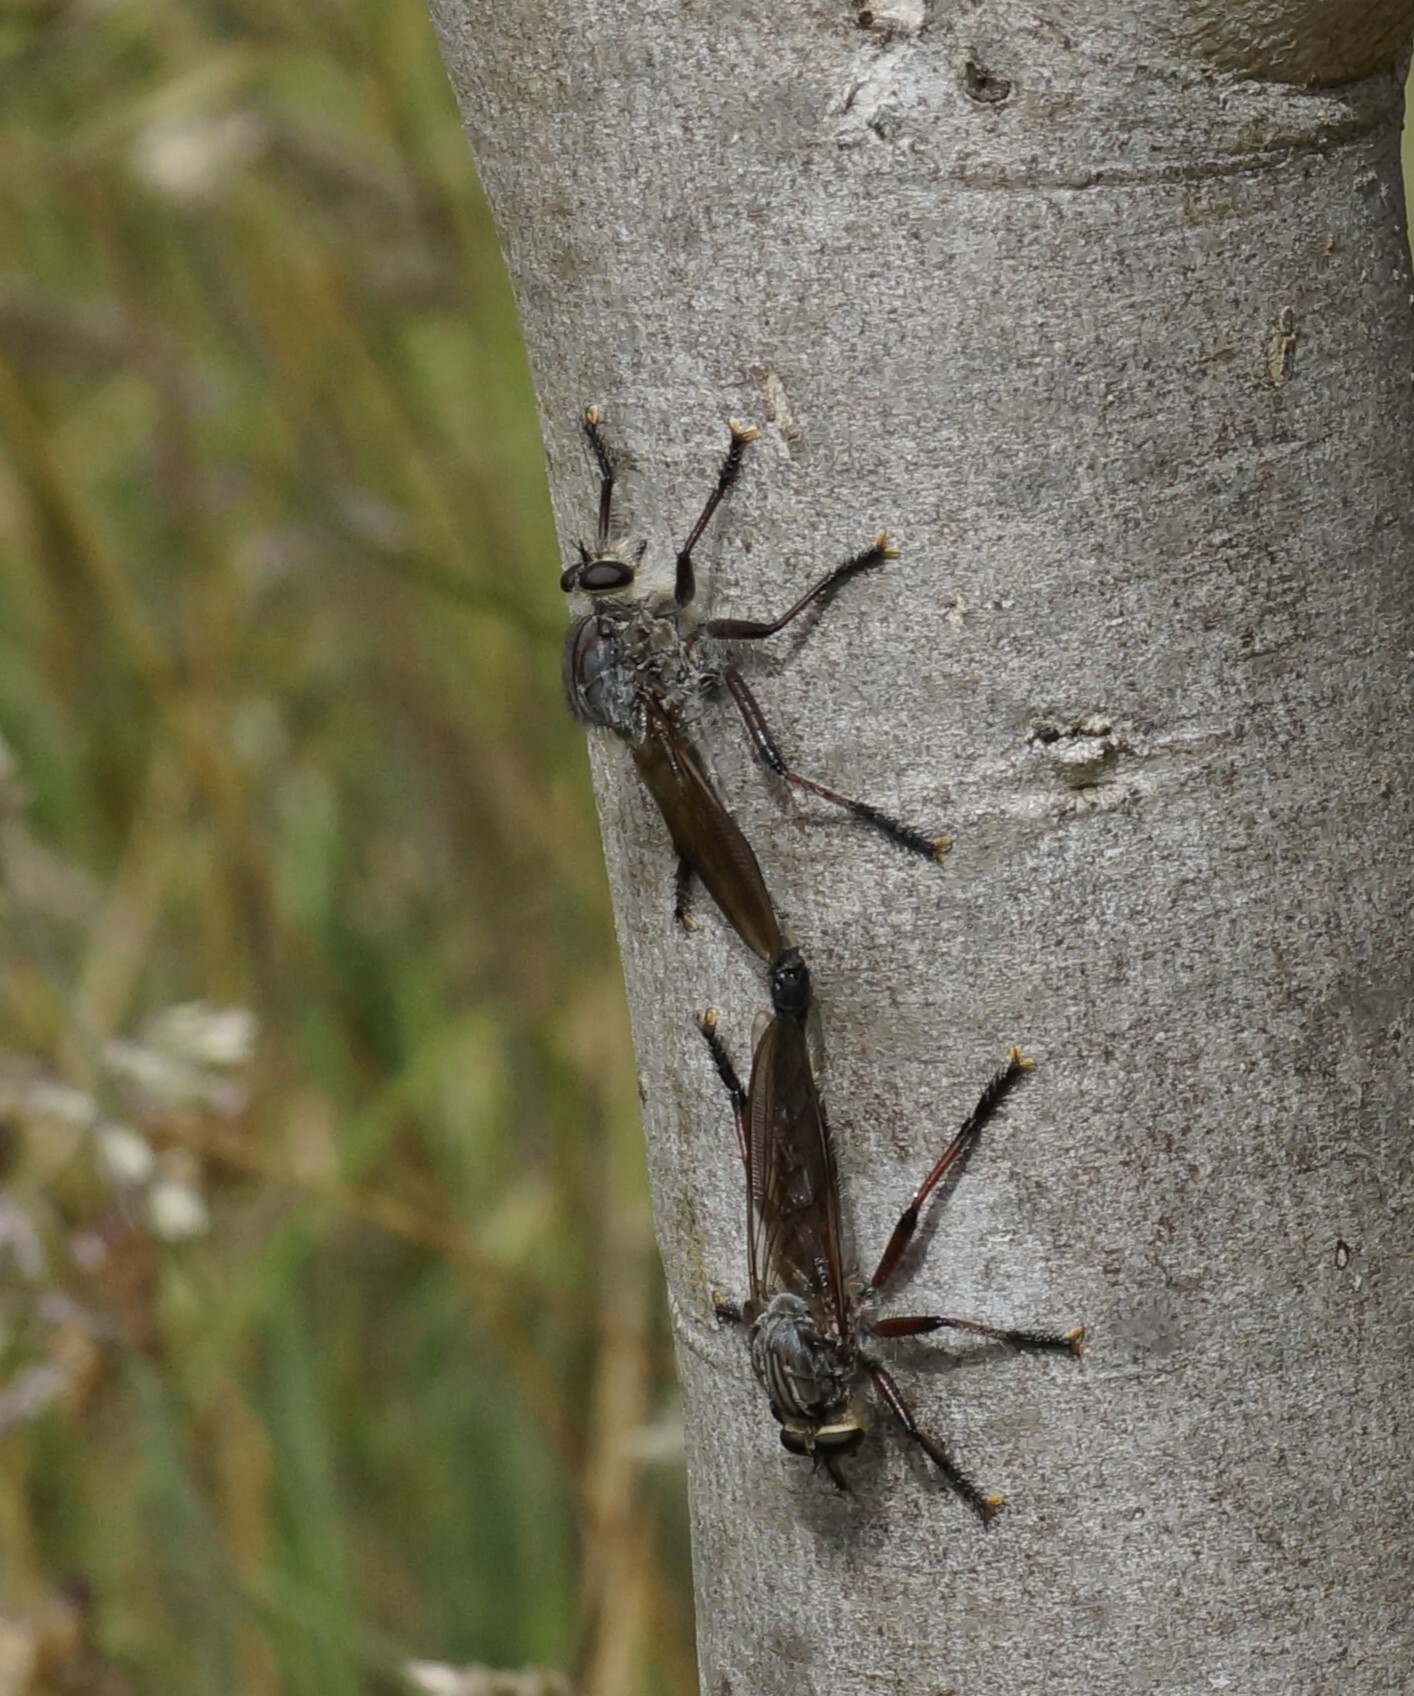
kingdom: Animalia
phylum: Arthropoda
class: Insecta
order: Diptera
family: Asilidae
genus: Neoaratus
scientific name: Neoaratus hercules
